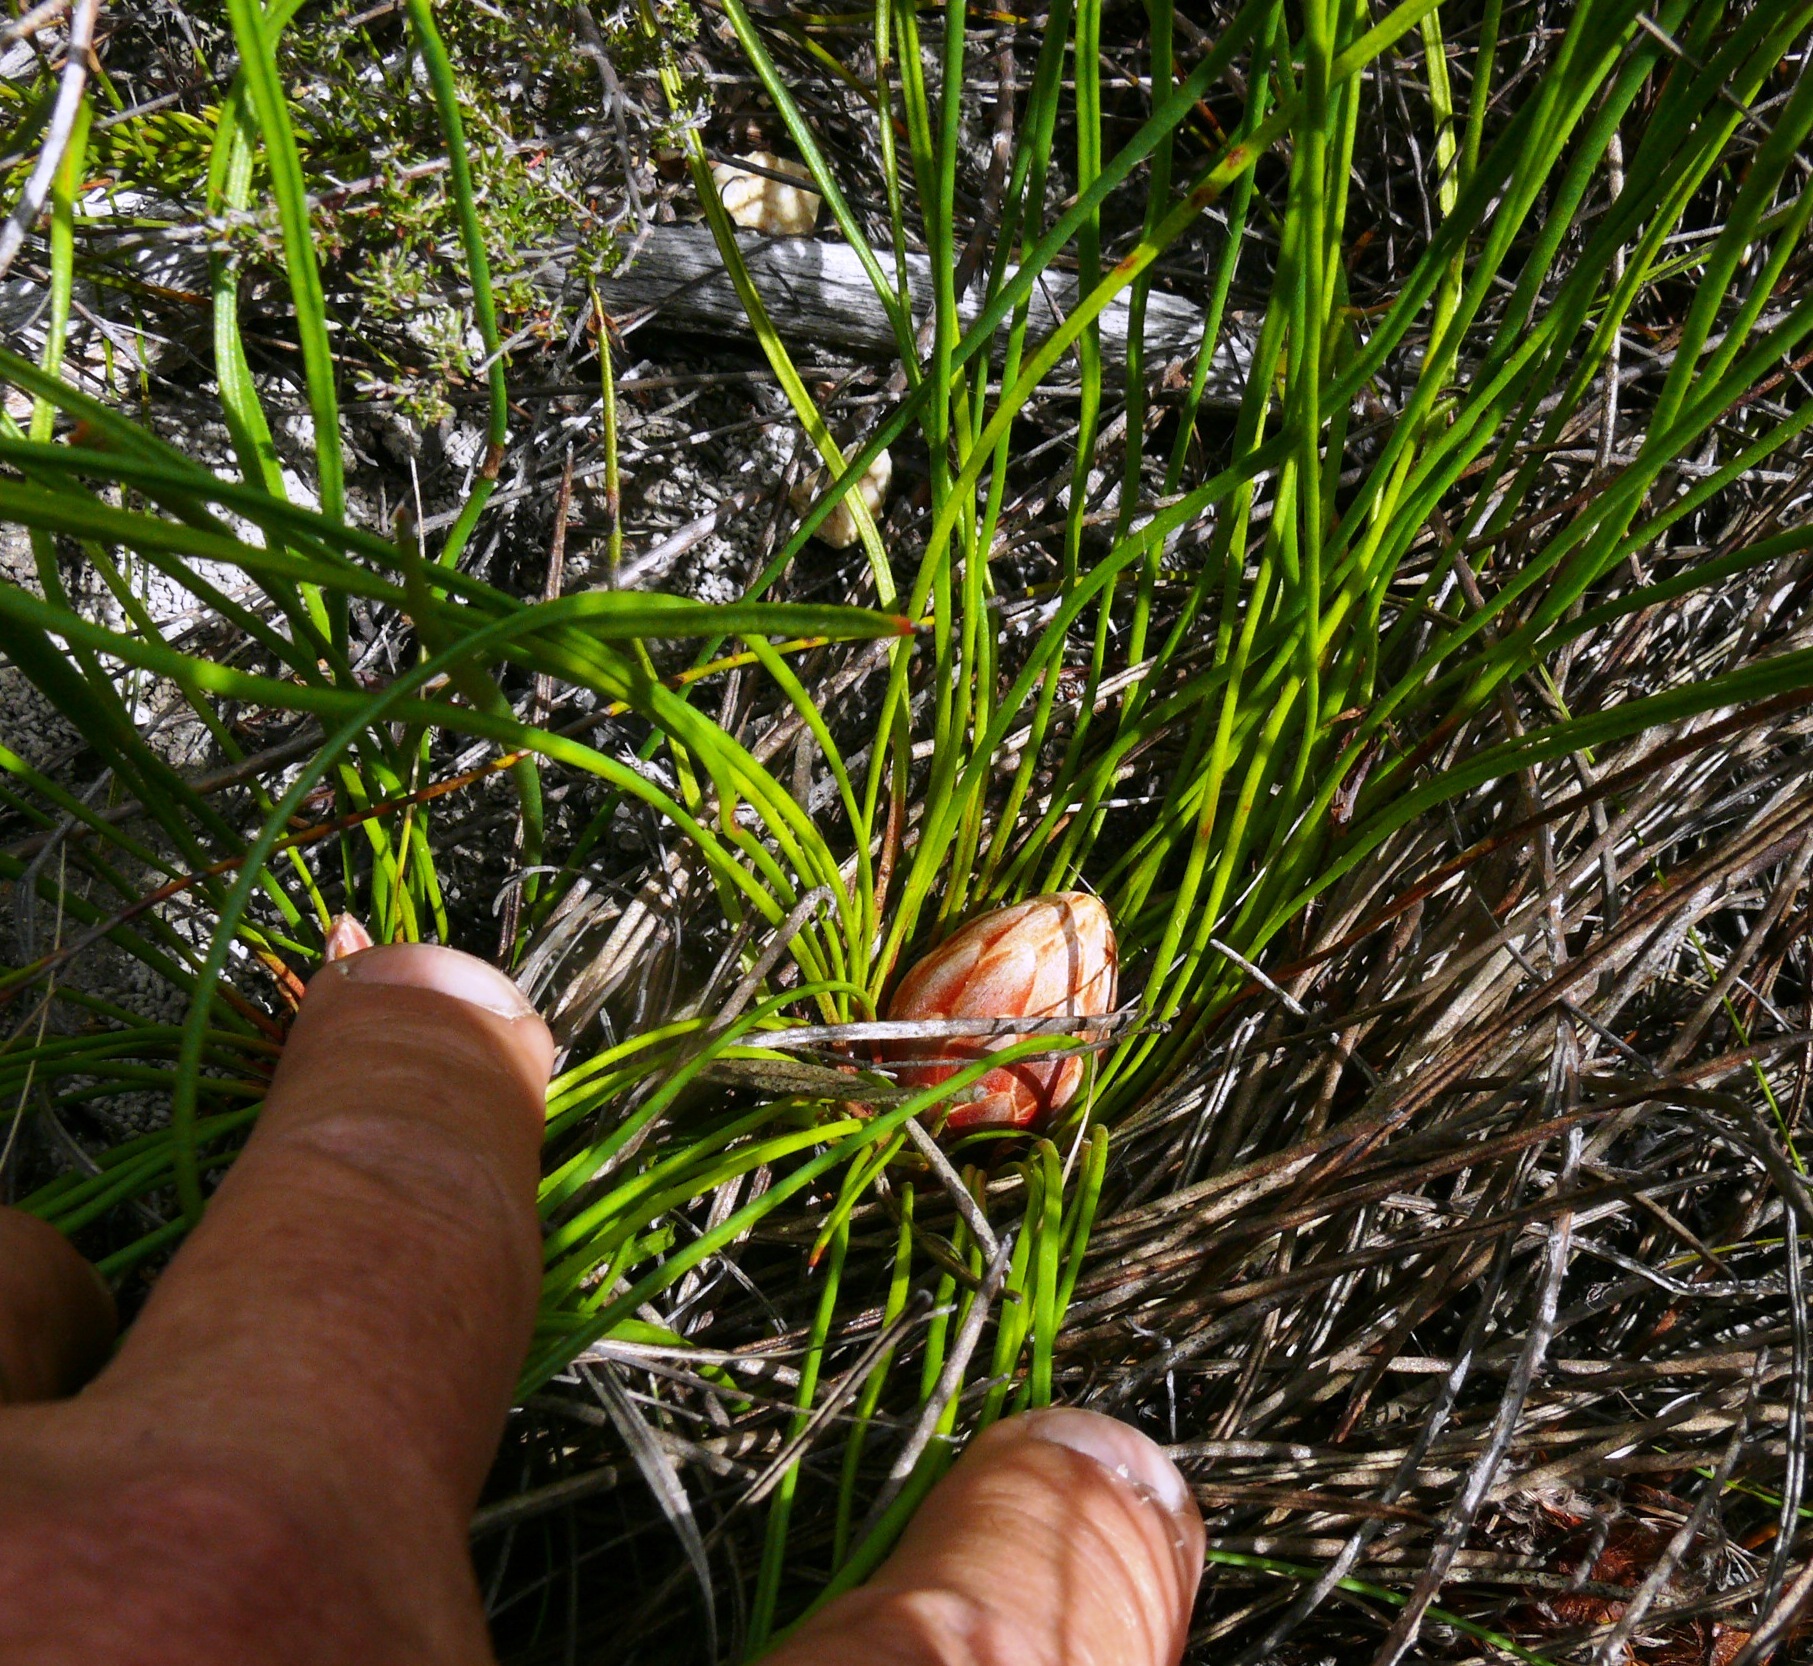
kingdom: Plantae
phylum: Tracheophyta
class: Magnoliopsida
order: Proteales
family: Proteaceae
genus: Protea
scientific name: Protea piscina
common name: Visgat sugarbush
